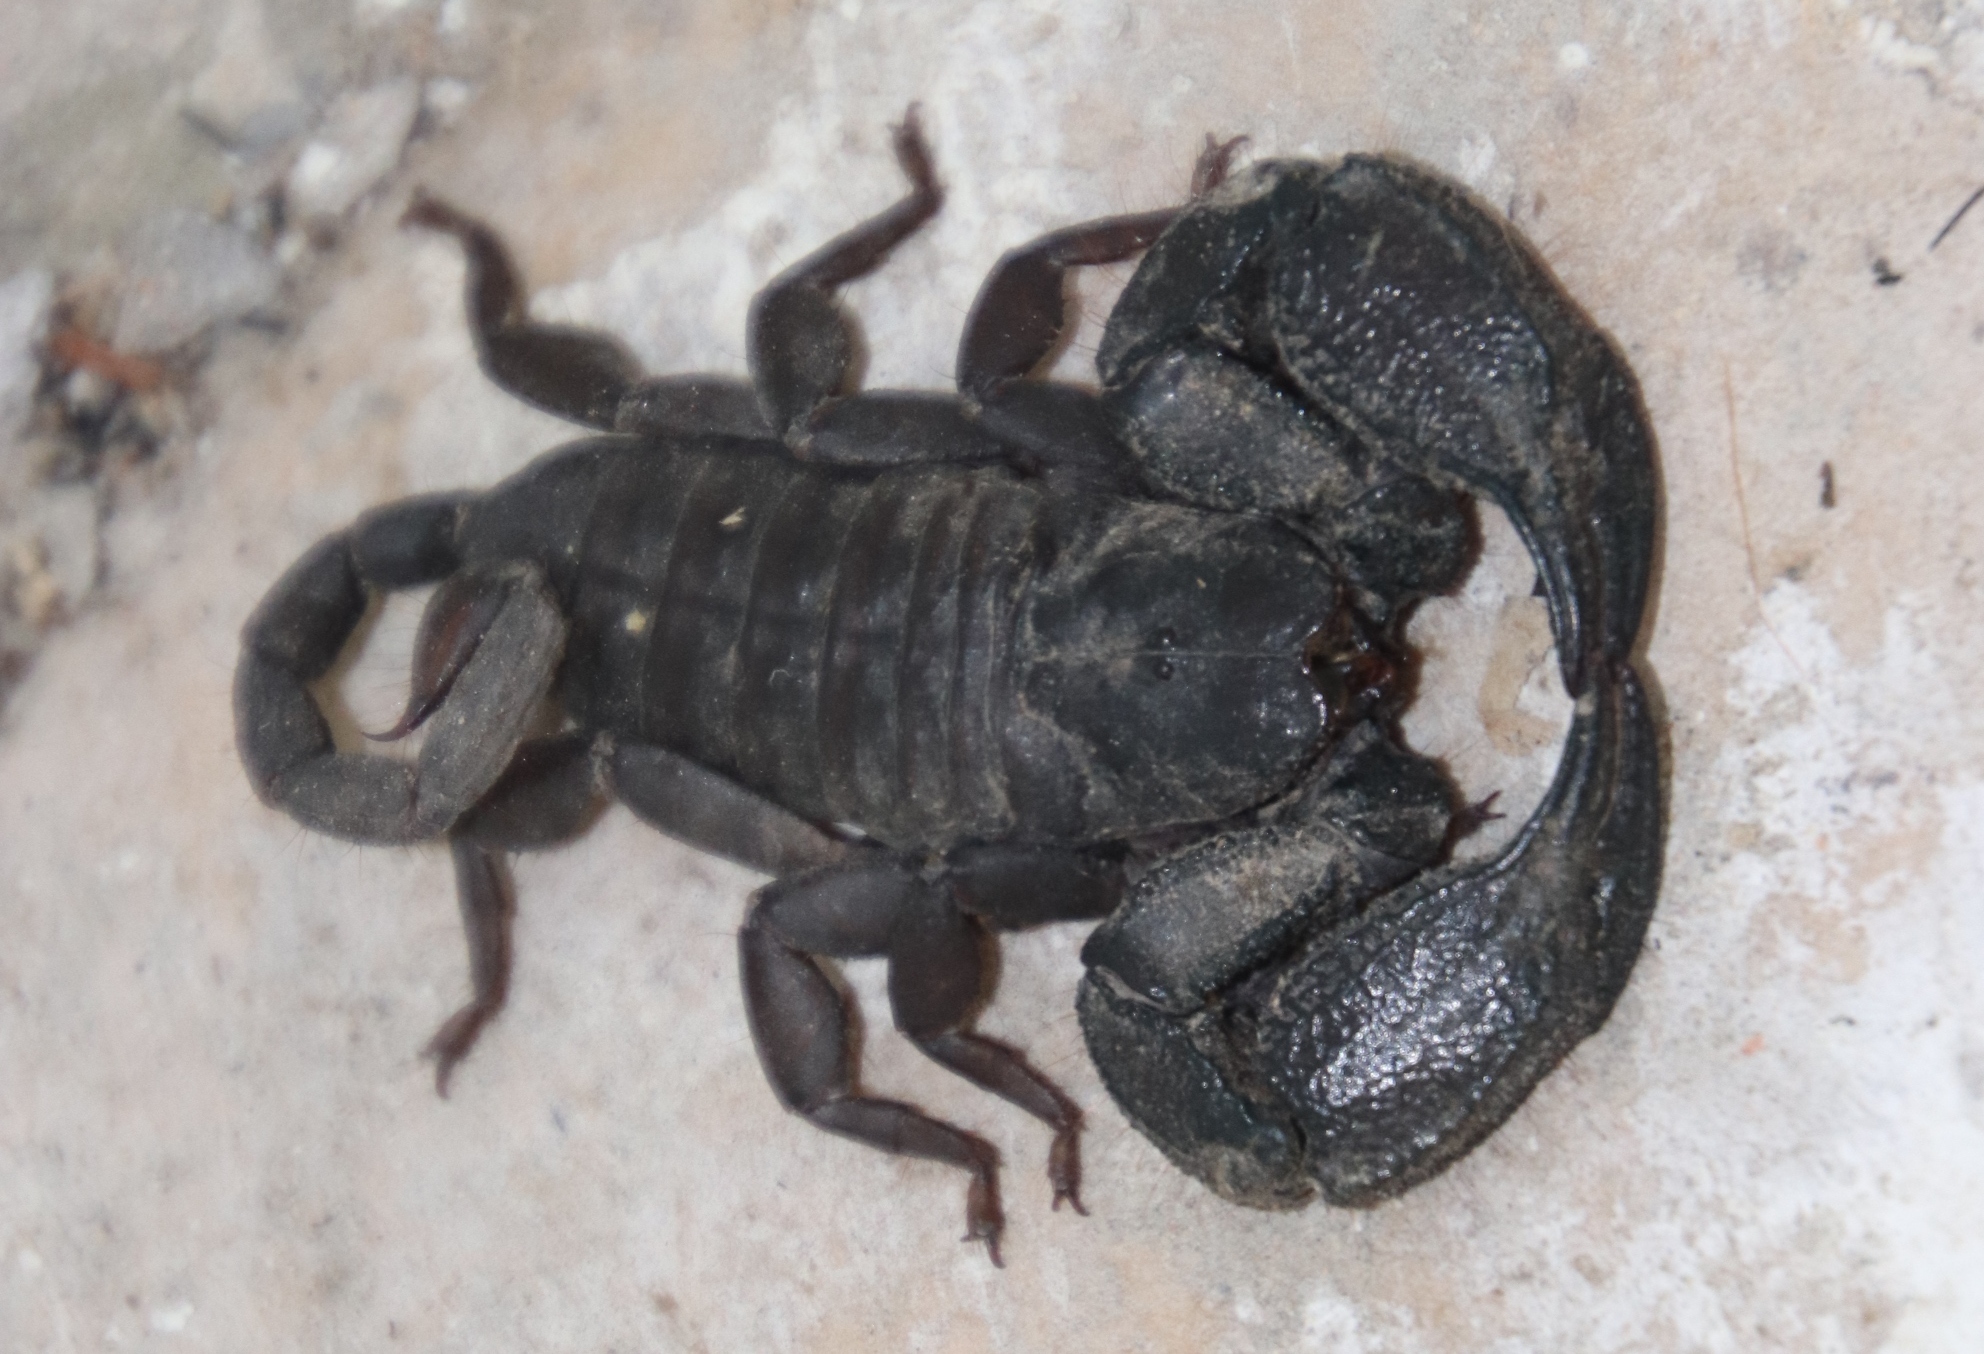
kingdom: Animalia
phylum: Arthropoda
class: Arachnida
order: Scorpiones
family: Hormuridae
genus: Opisthacanthus
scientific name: Opisthacanthus capensis
